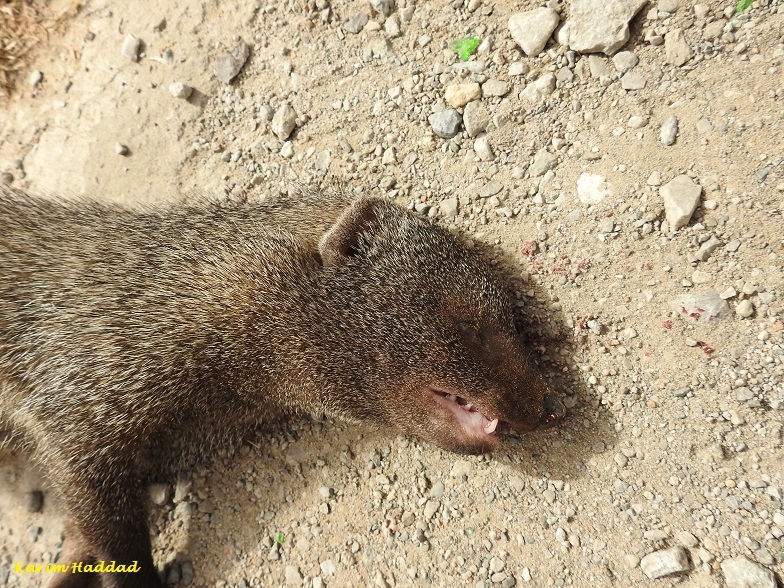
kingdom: Animalia
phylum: Chordata
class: Mammalia
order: Carnivora
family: Herpestidae
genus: Herpestes
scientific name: Herpestes ichneumon
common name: Egyptian mongoose
